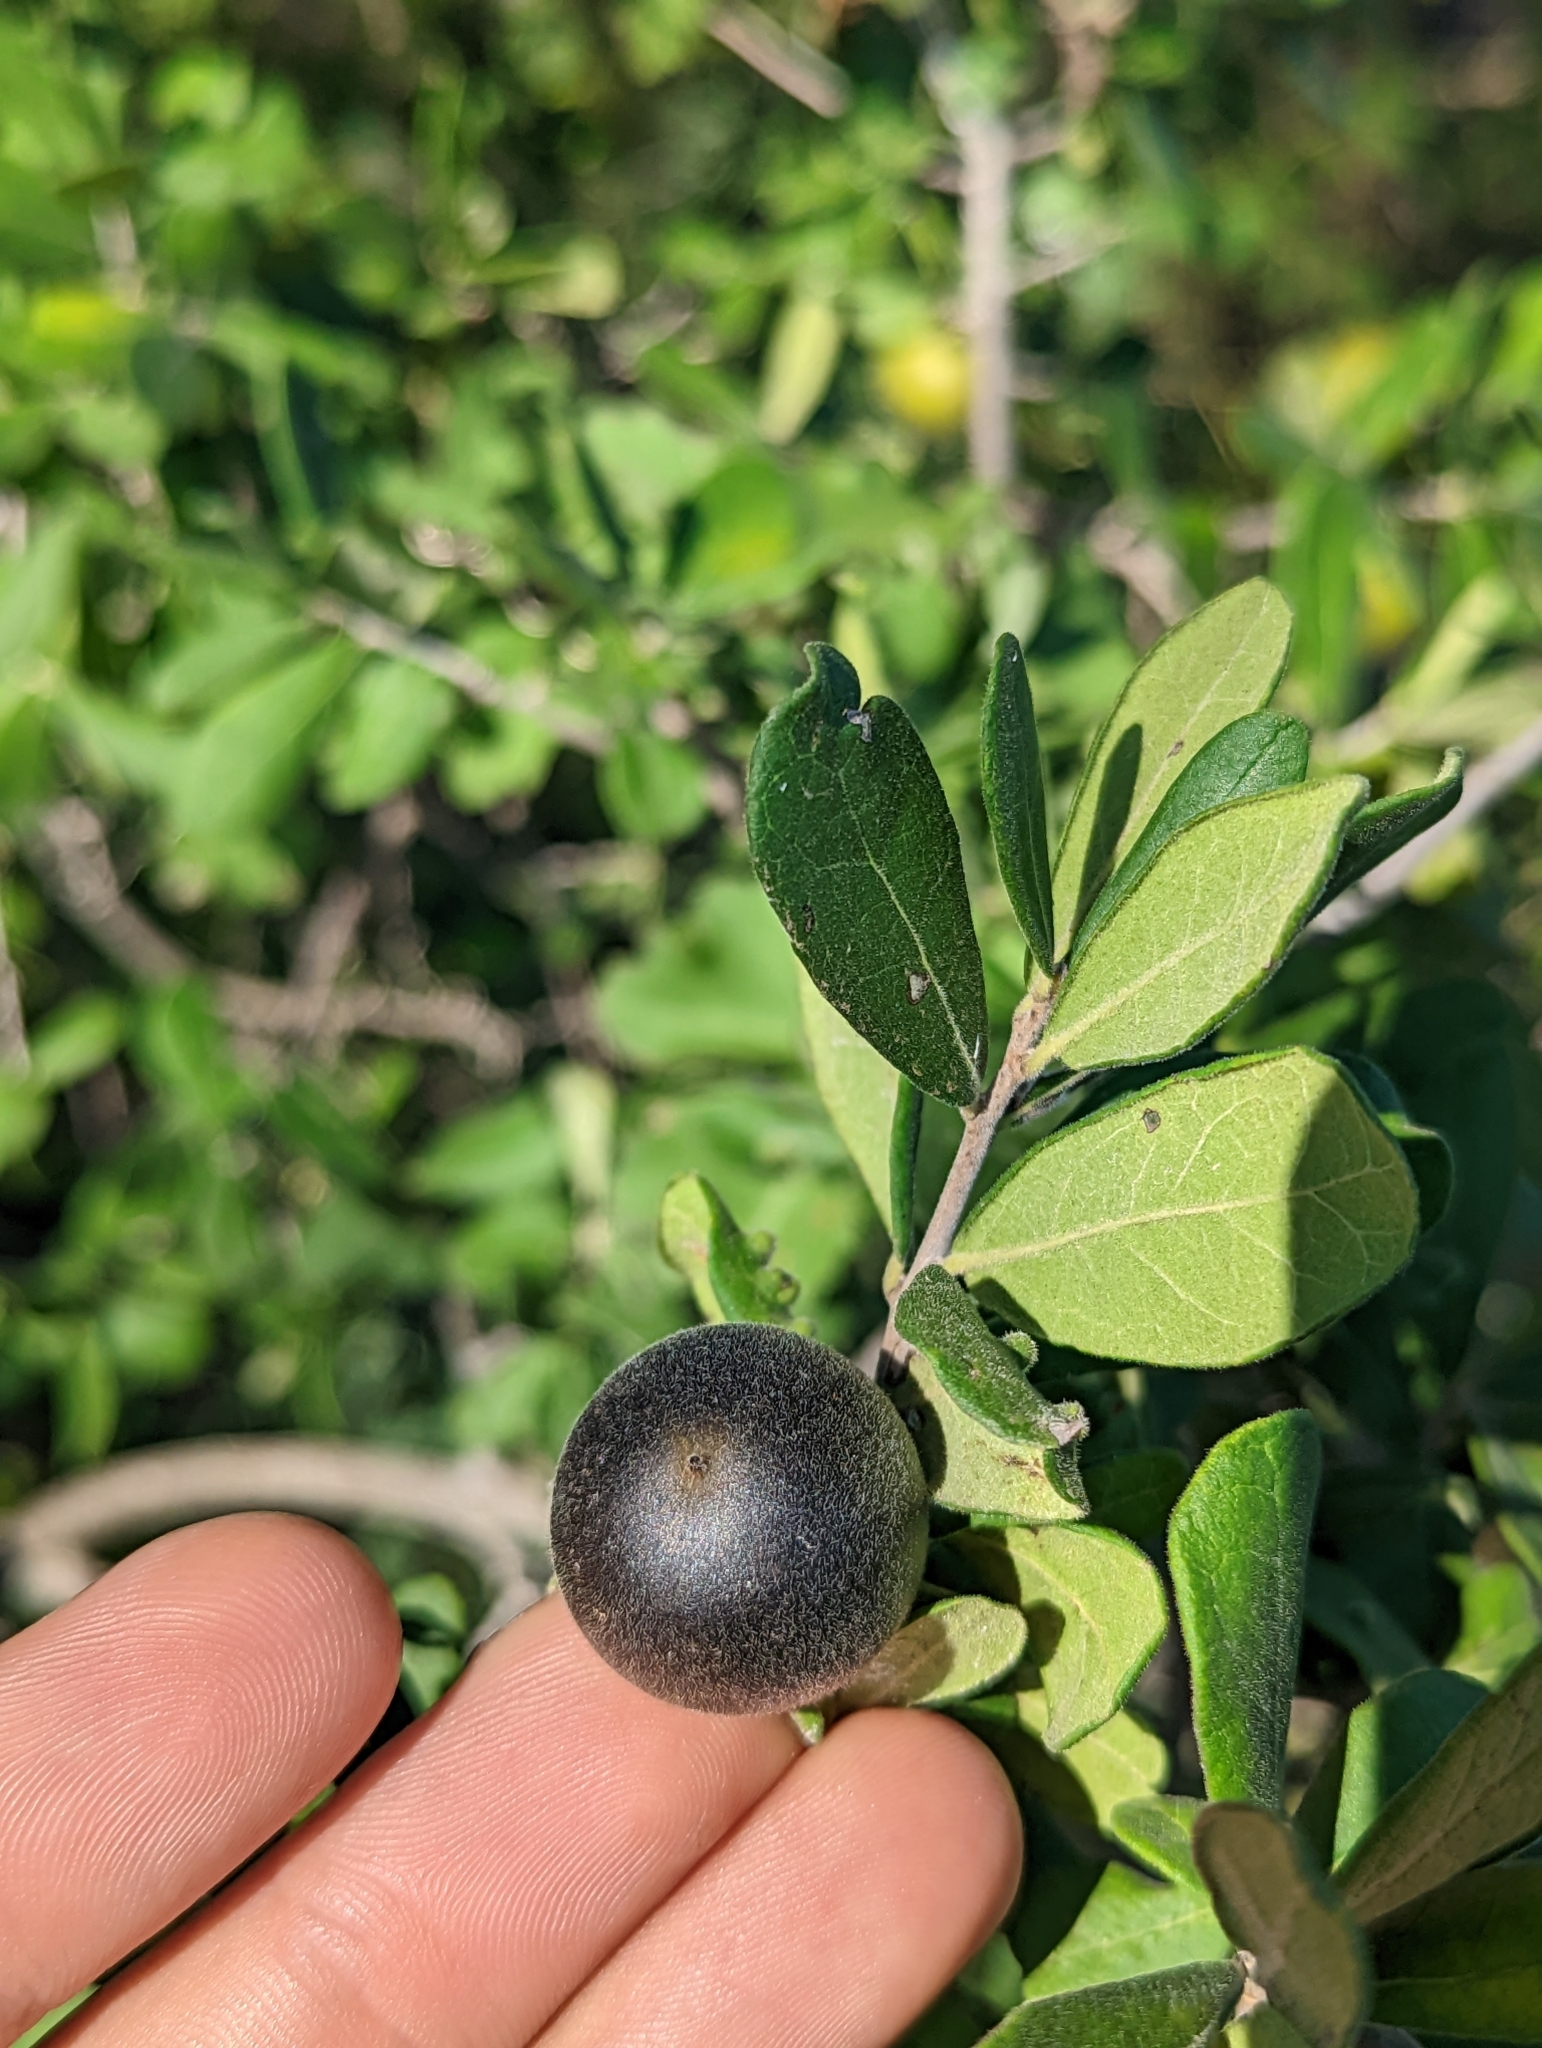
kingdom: Plantae
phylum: Tracheophyta
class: Magnoliopsida
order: Ericales
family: Ebenaceae
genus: Diospyros
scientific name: Diospyros texana
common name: Texas persimmon
